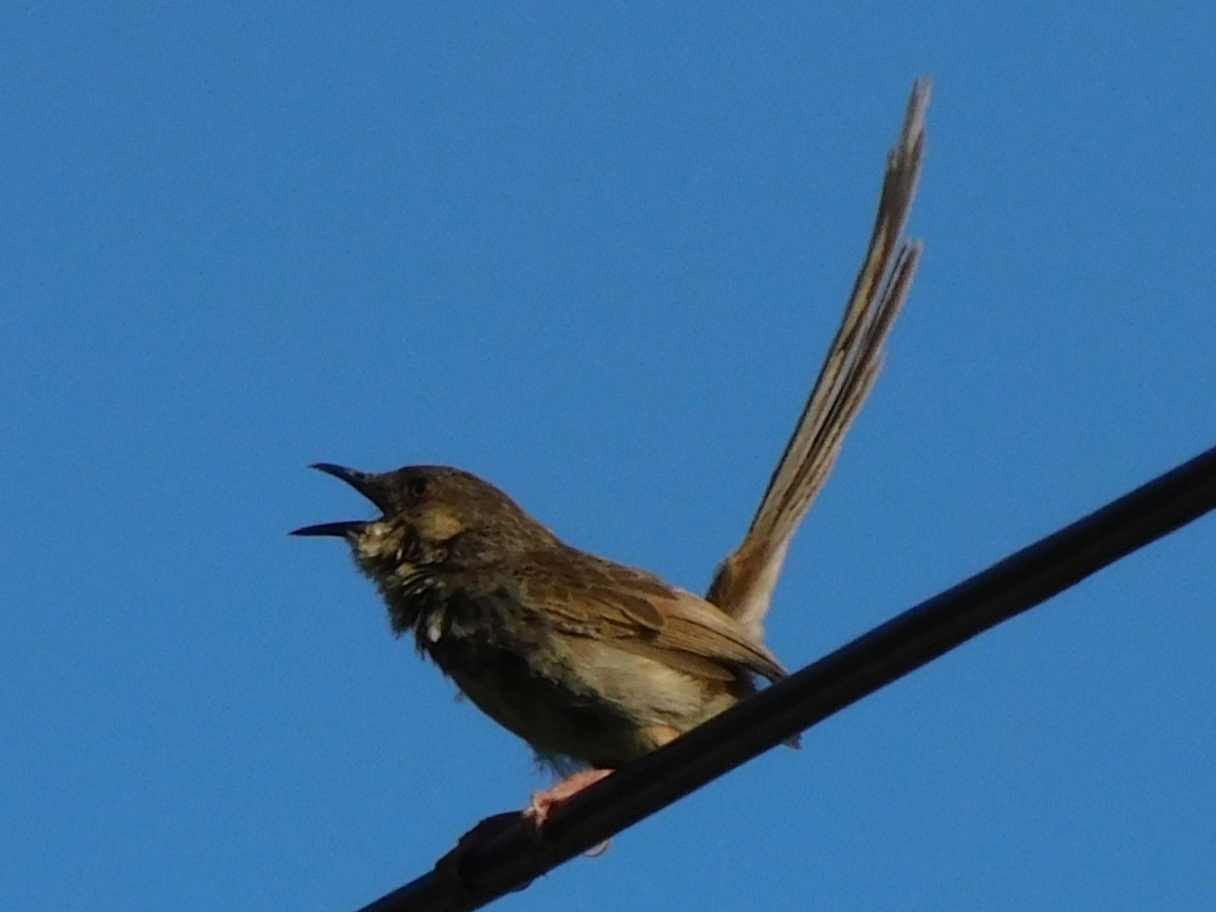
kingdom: Animalia
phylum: Chordata
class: Aves
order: Passeriformes
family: Cisticolidae
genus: Prinia
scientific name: Prinia crinigera
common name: Striated prinia
